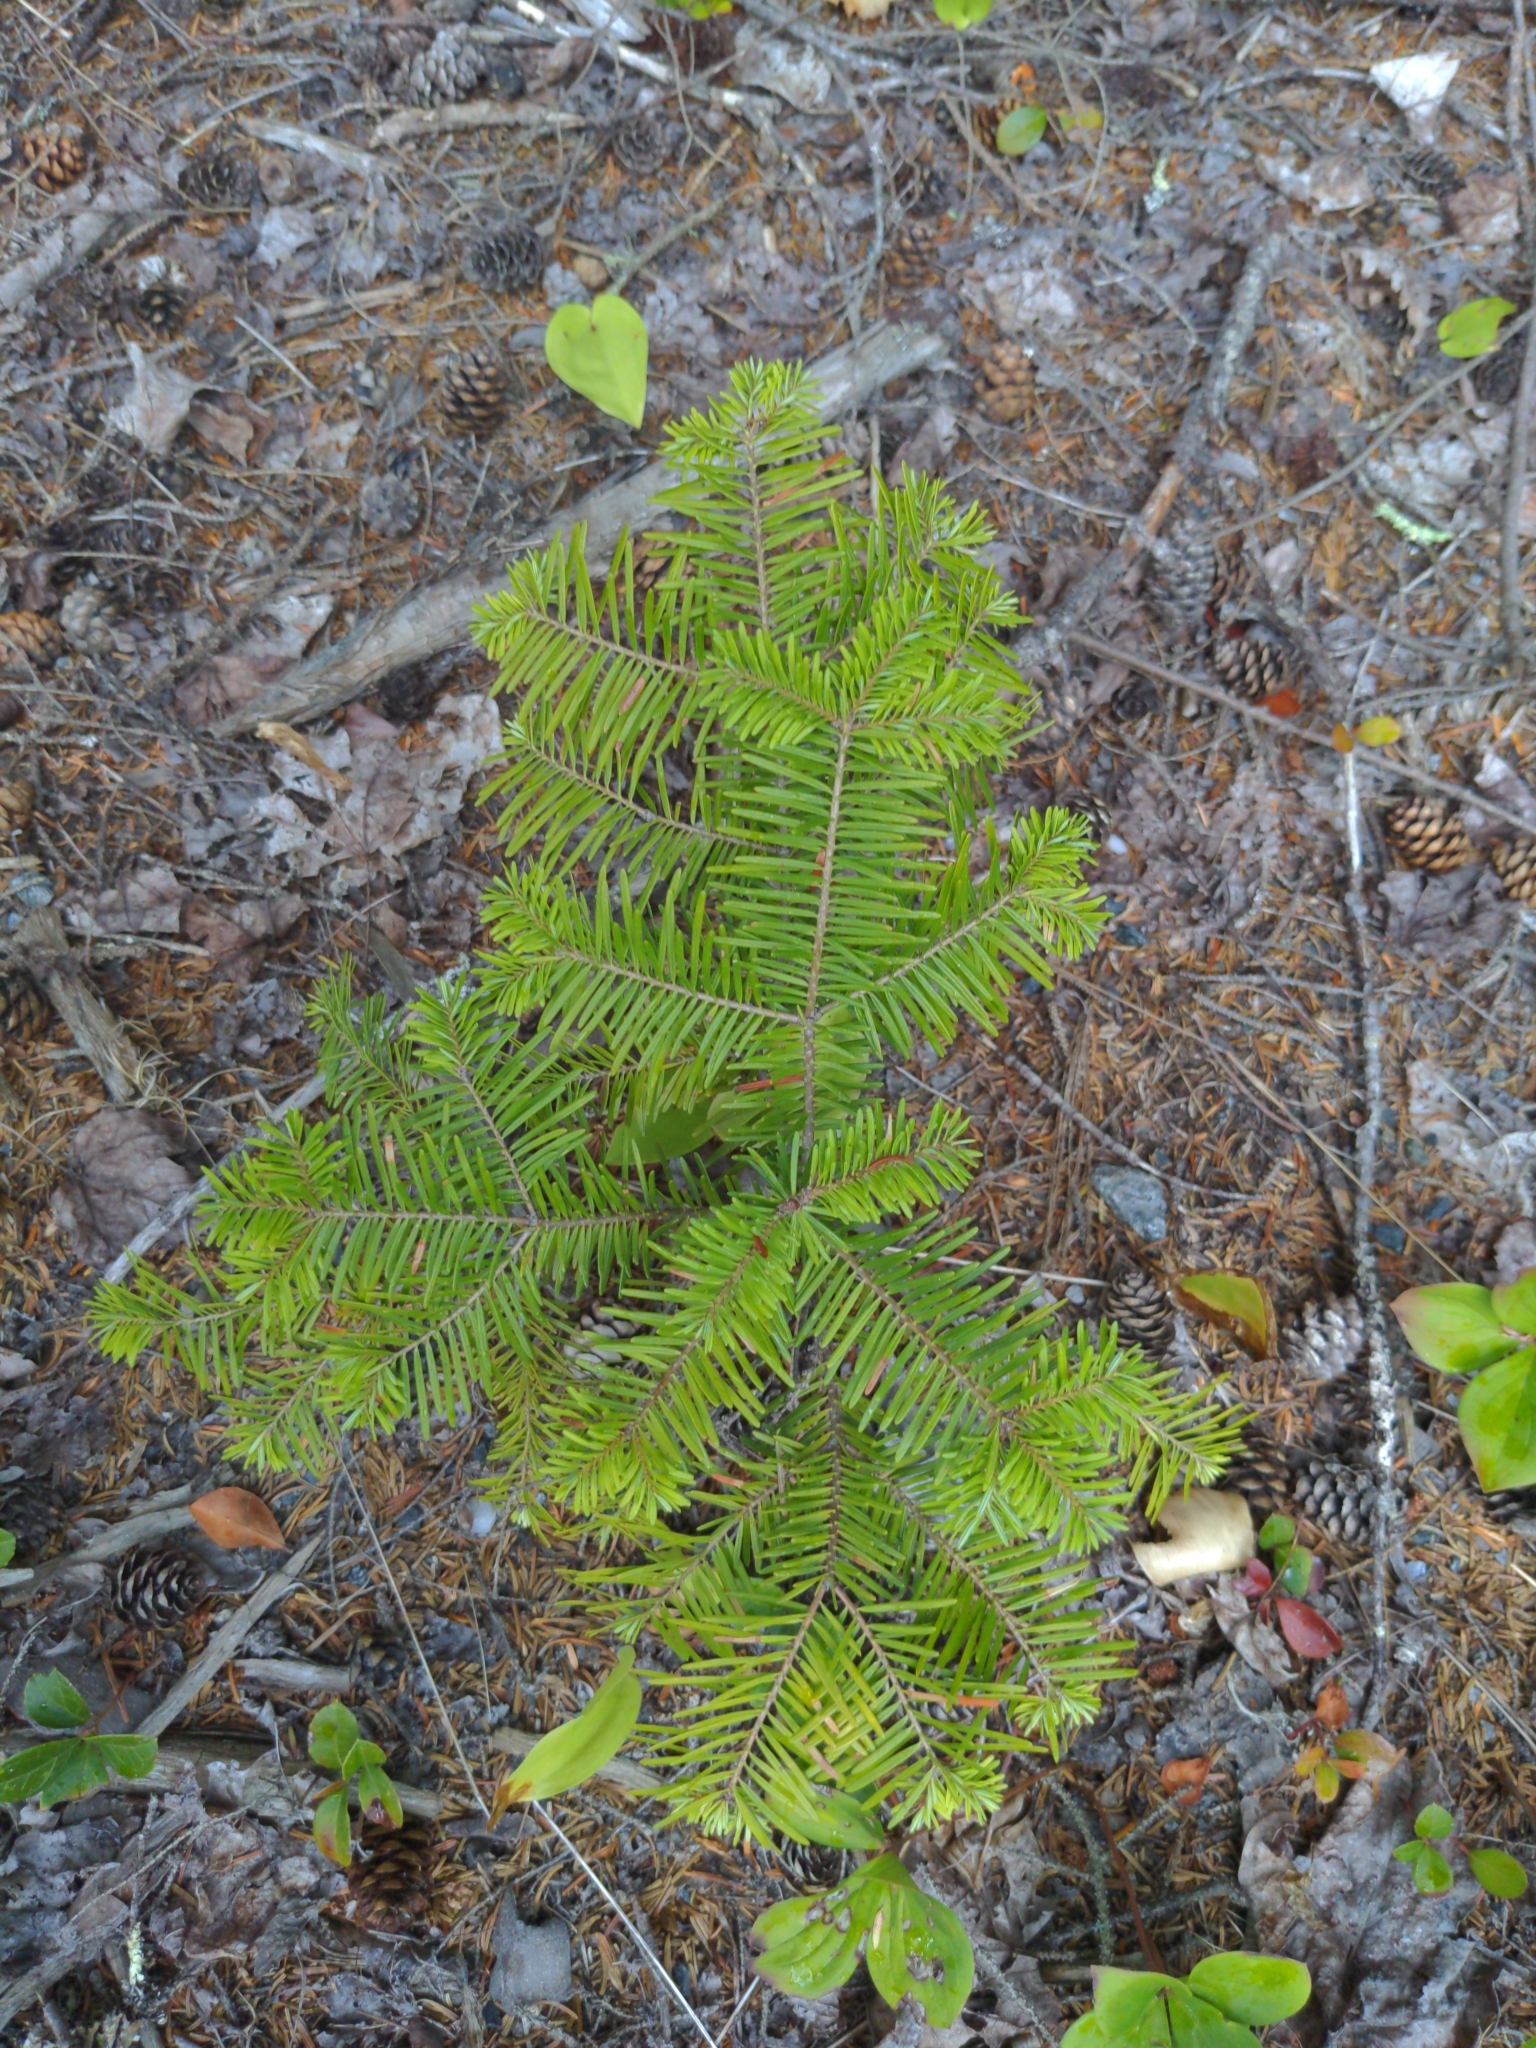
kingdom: Plantae
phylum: Tracheophyta
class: Pinopsida
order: Pinales
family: Pinaceae
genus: Abies
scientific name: Abies balsamea
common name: Balsam fir
